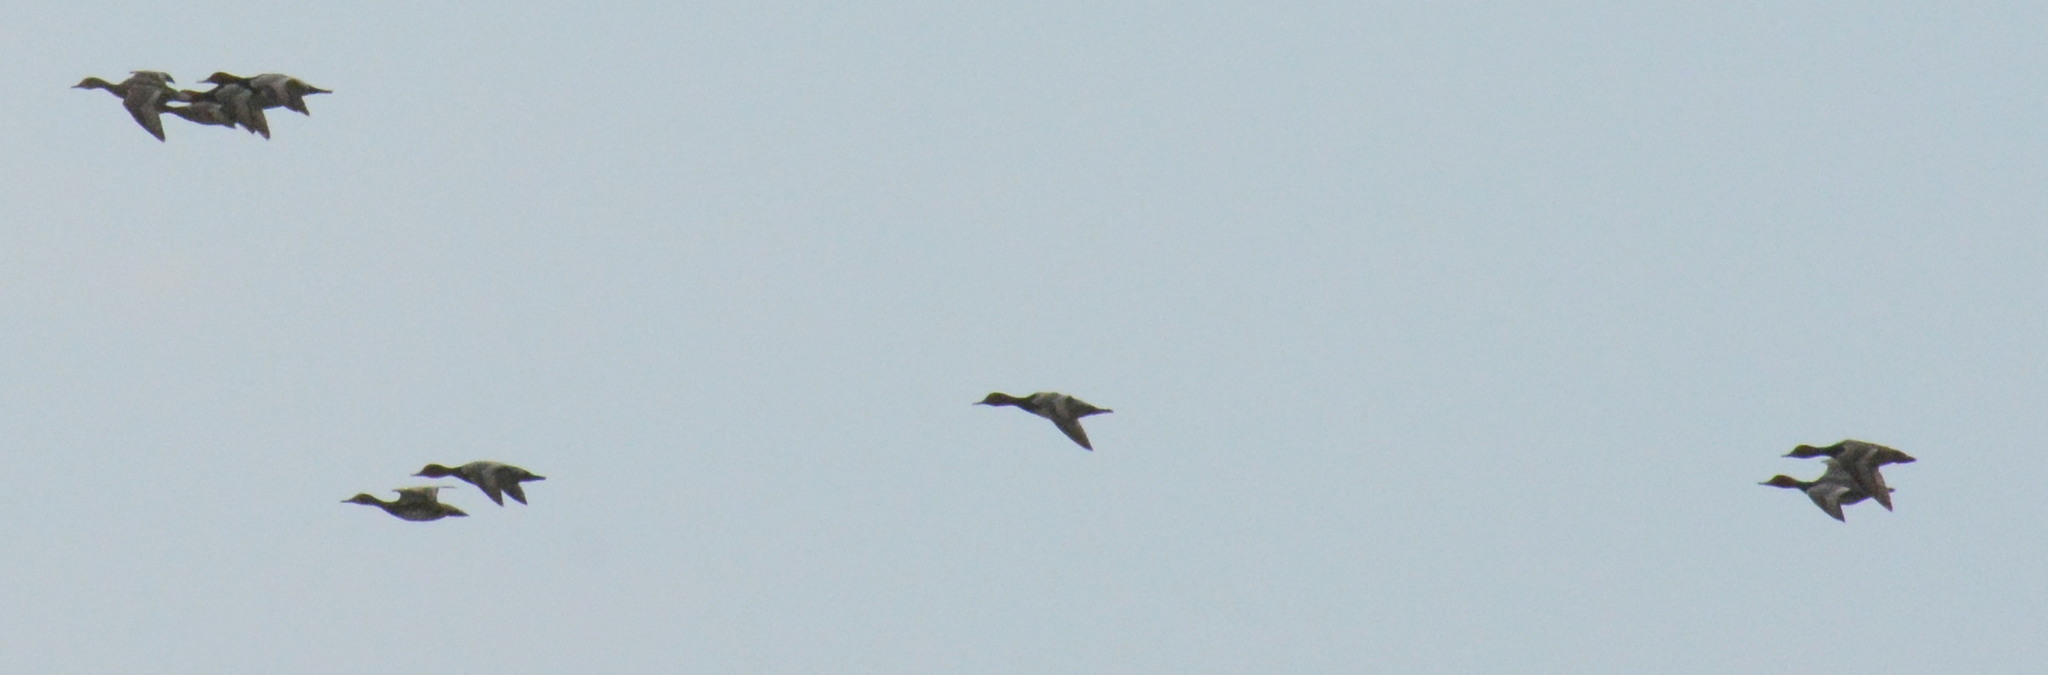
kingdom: Animalia
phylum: Chordata
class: Aves
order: Anseriformes
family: Anatidae
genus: Aythya
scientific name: Aythya americana
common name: Redhead
